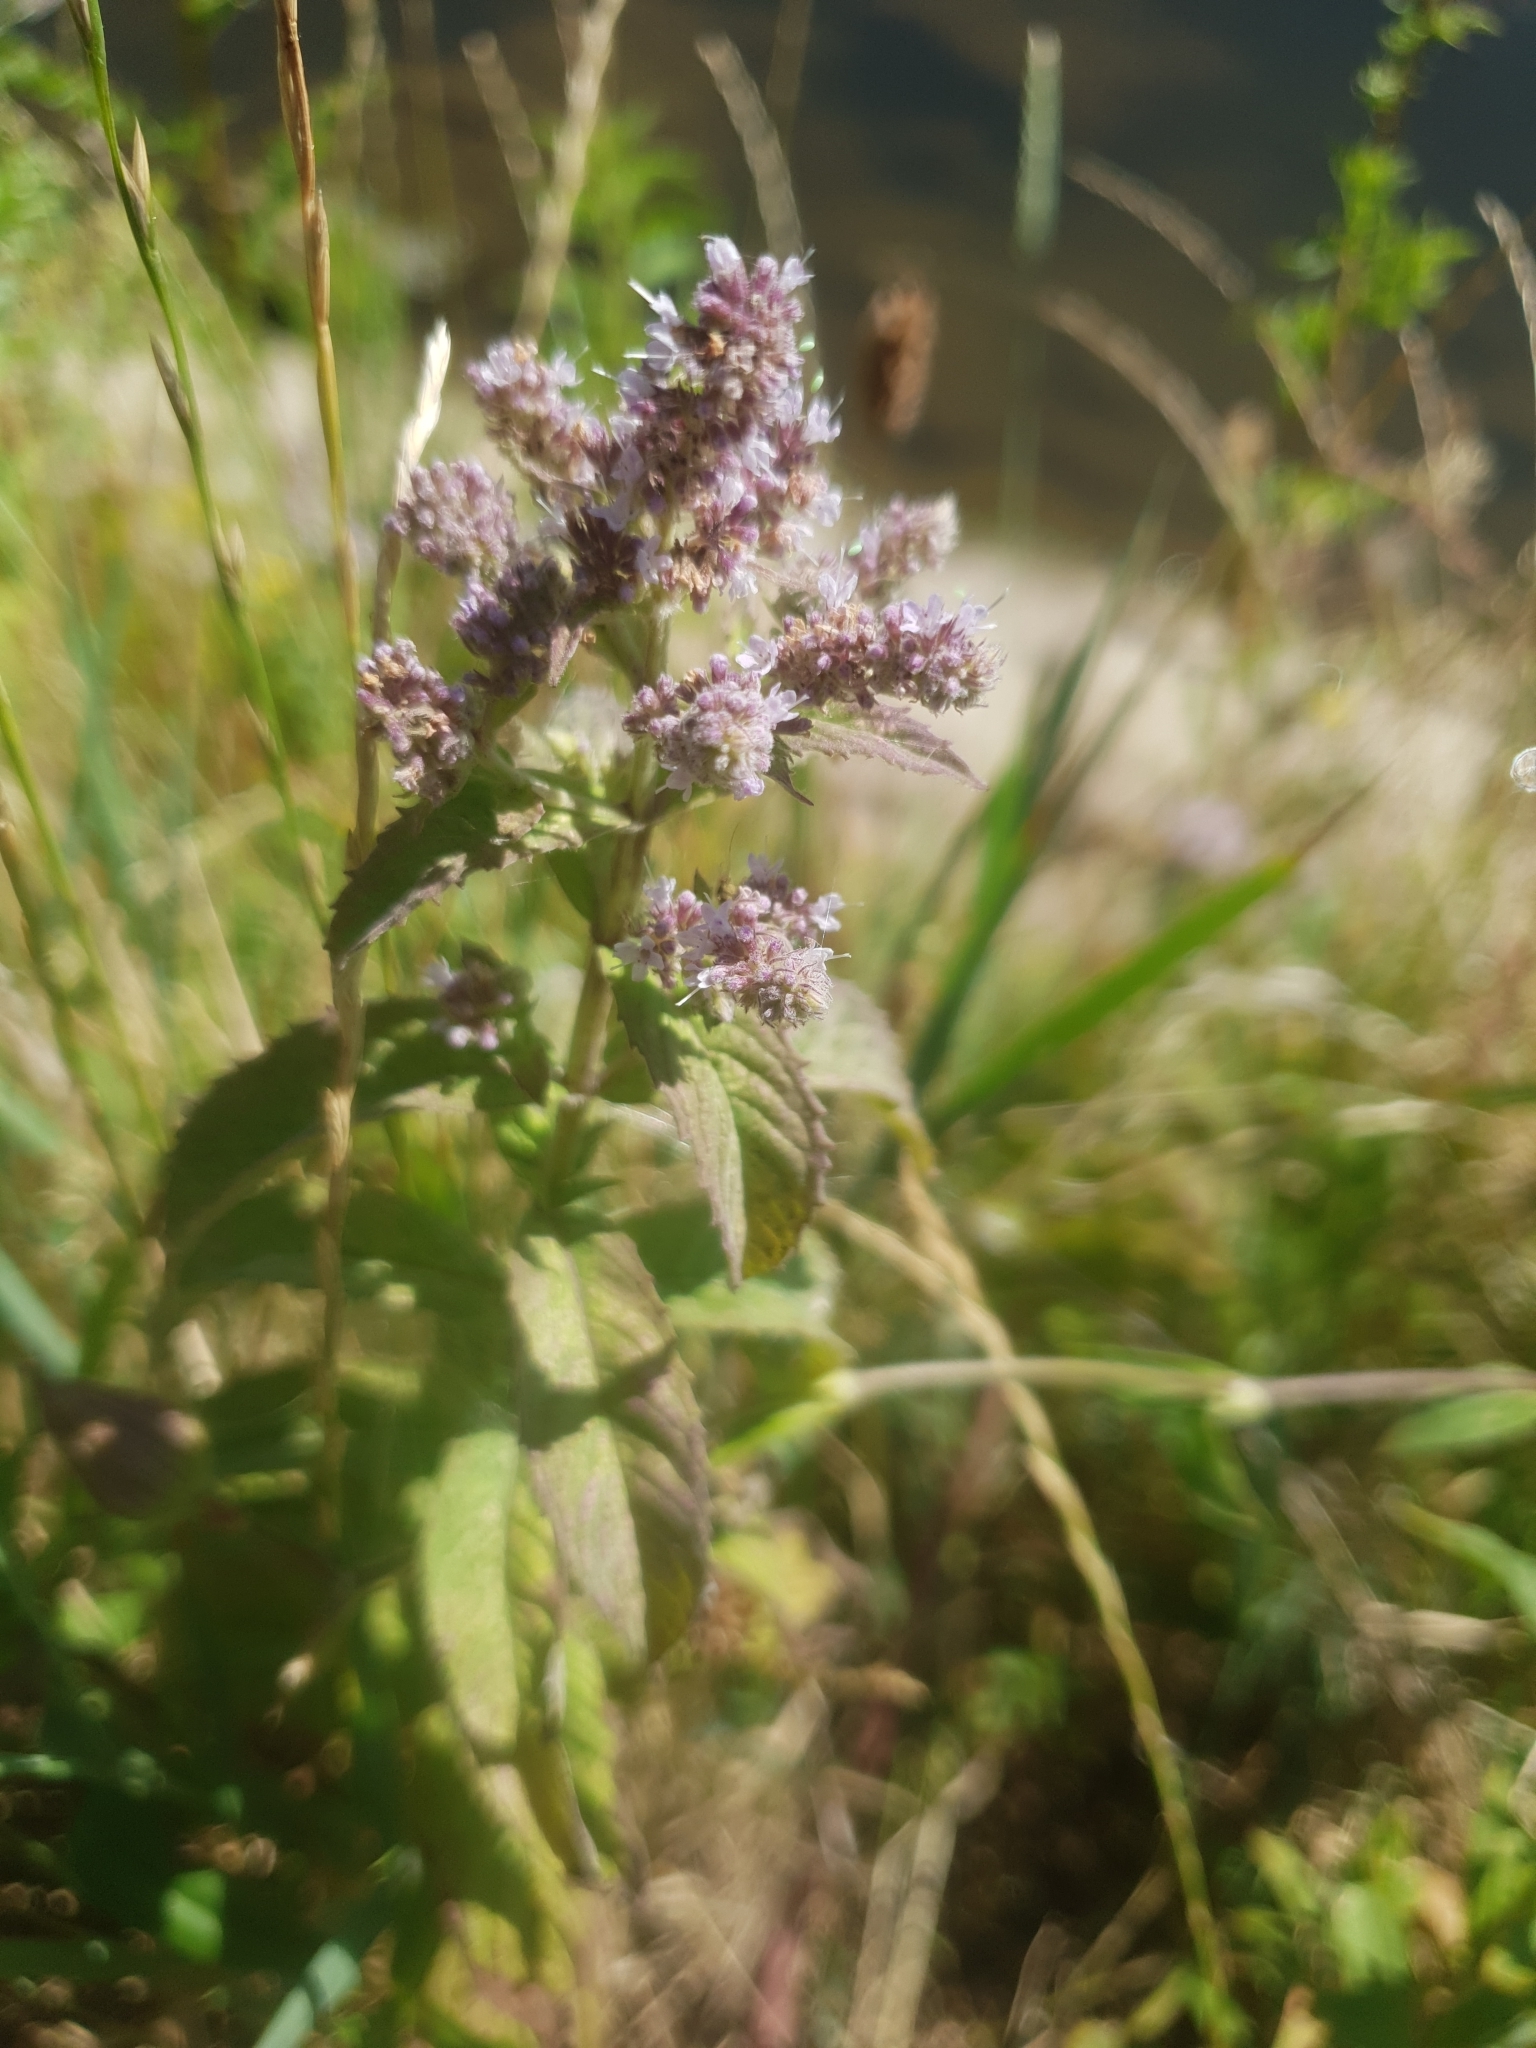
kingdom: Plantae
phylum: Tracheophyta
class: Magnoliopsida
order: Lamiales
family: Lamiaceae
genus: Mentha
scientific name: Mentha longifolia
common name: Horse mint
